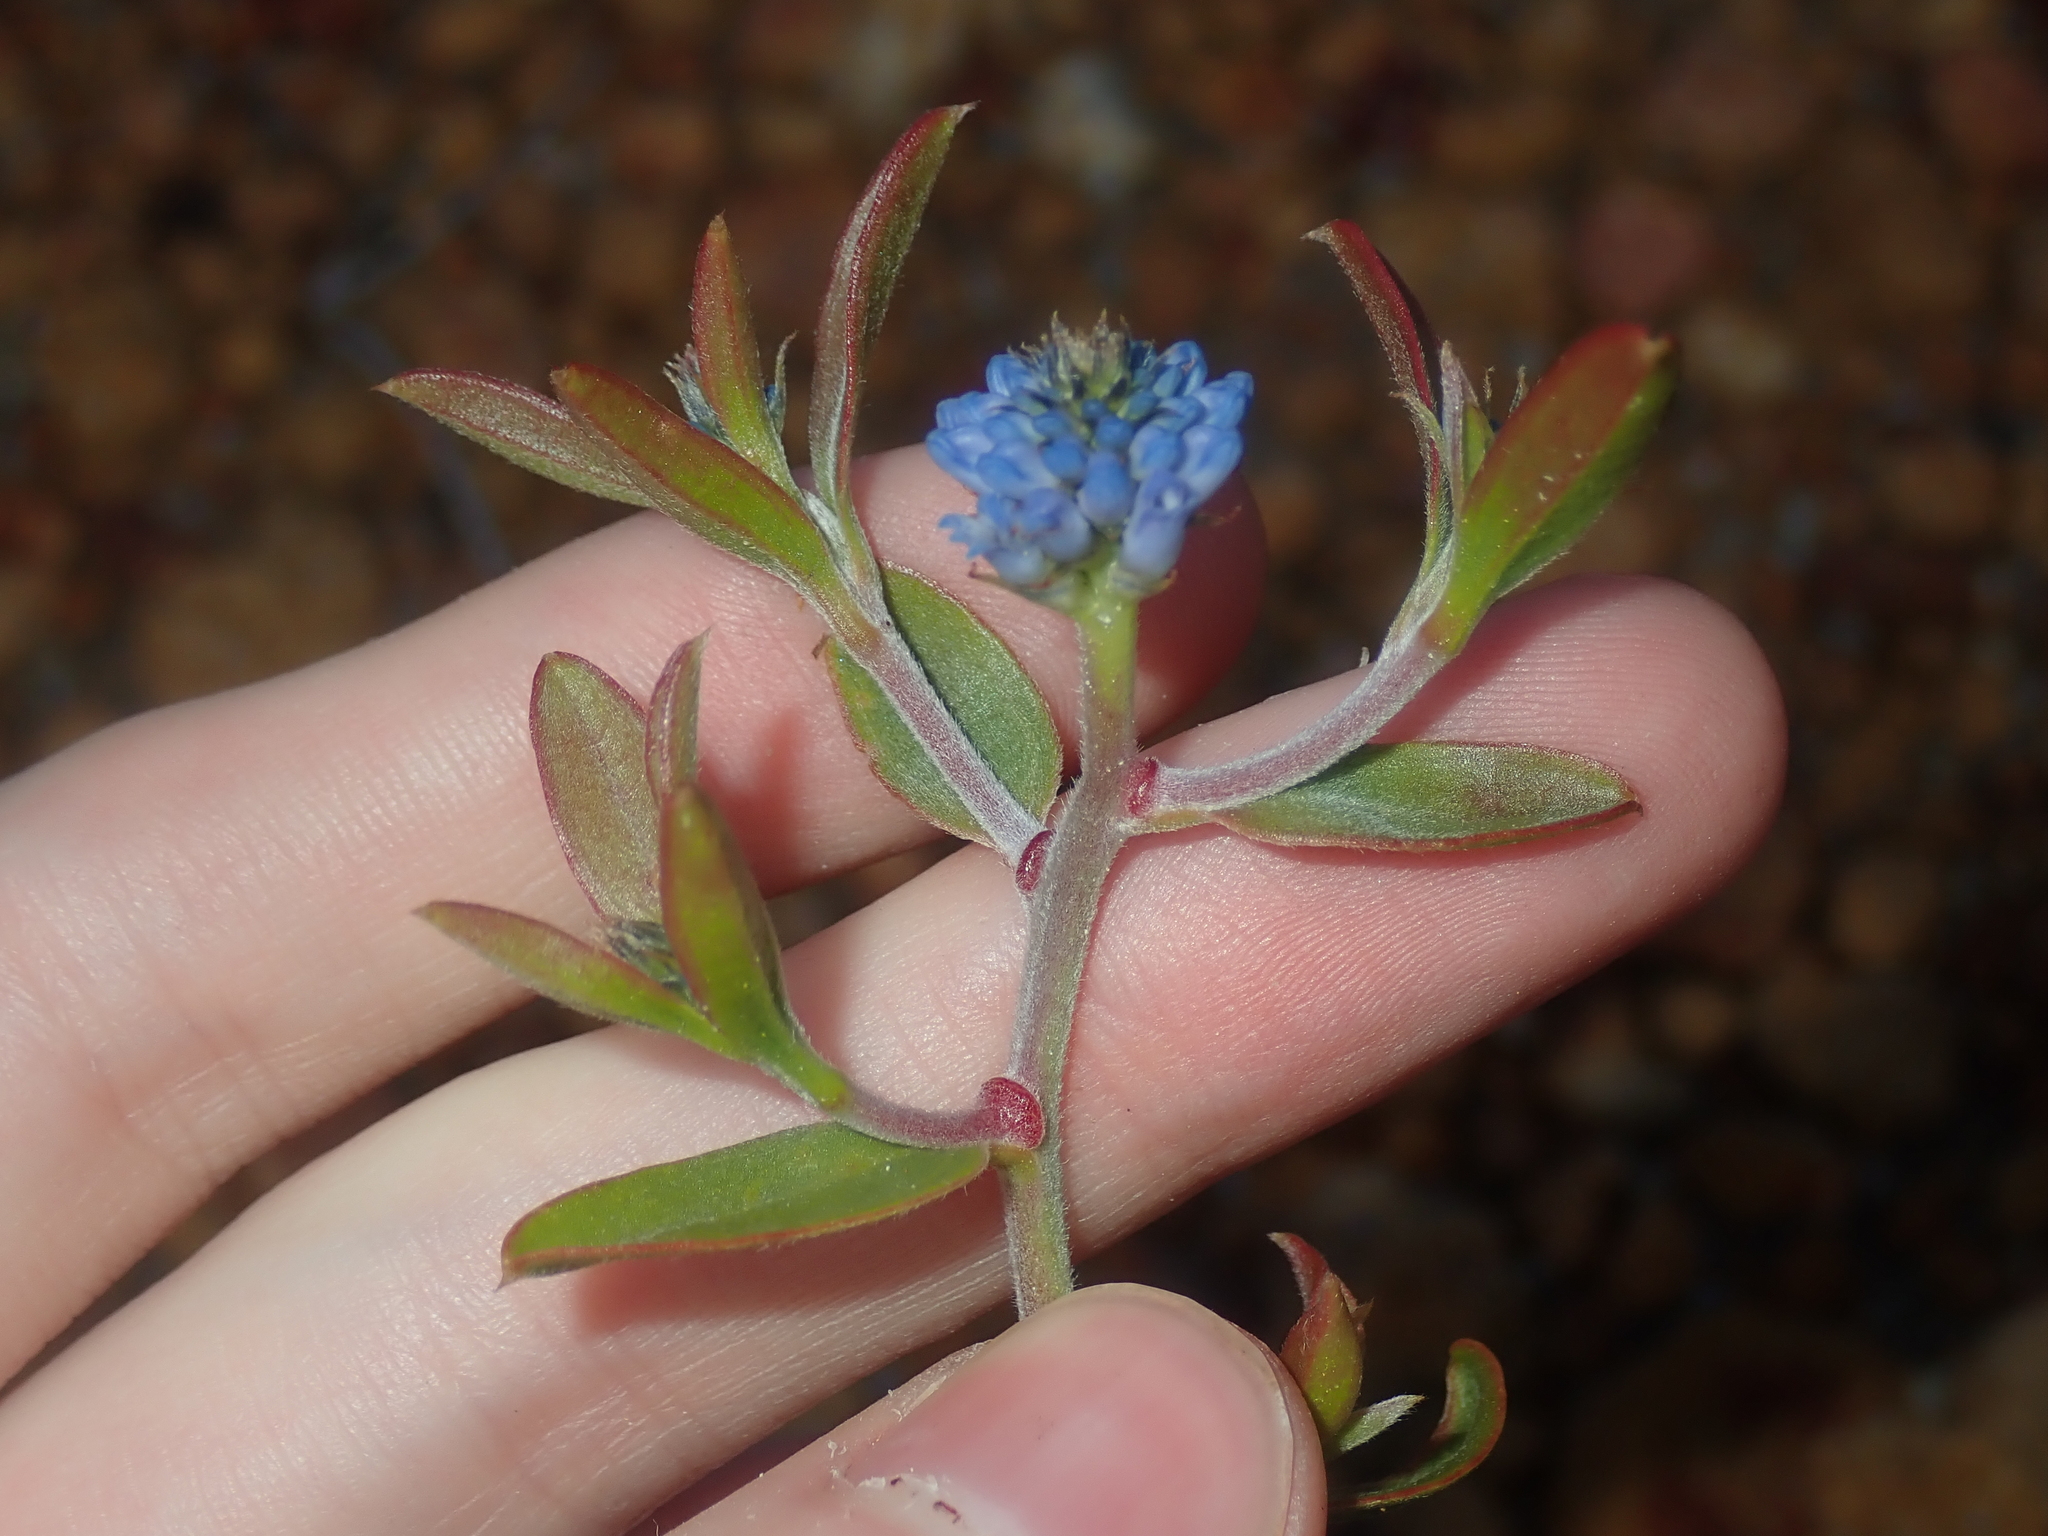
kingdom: Plantae
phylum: Tracheophyta
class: Magnoliopsida
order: Proteales
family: Proteaceae
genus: Conospermum
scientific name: Conospermum nervosum
